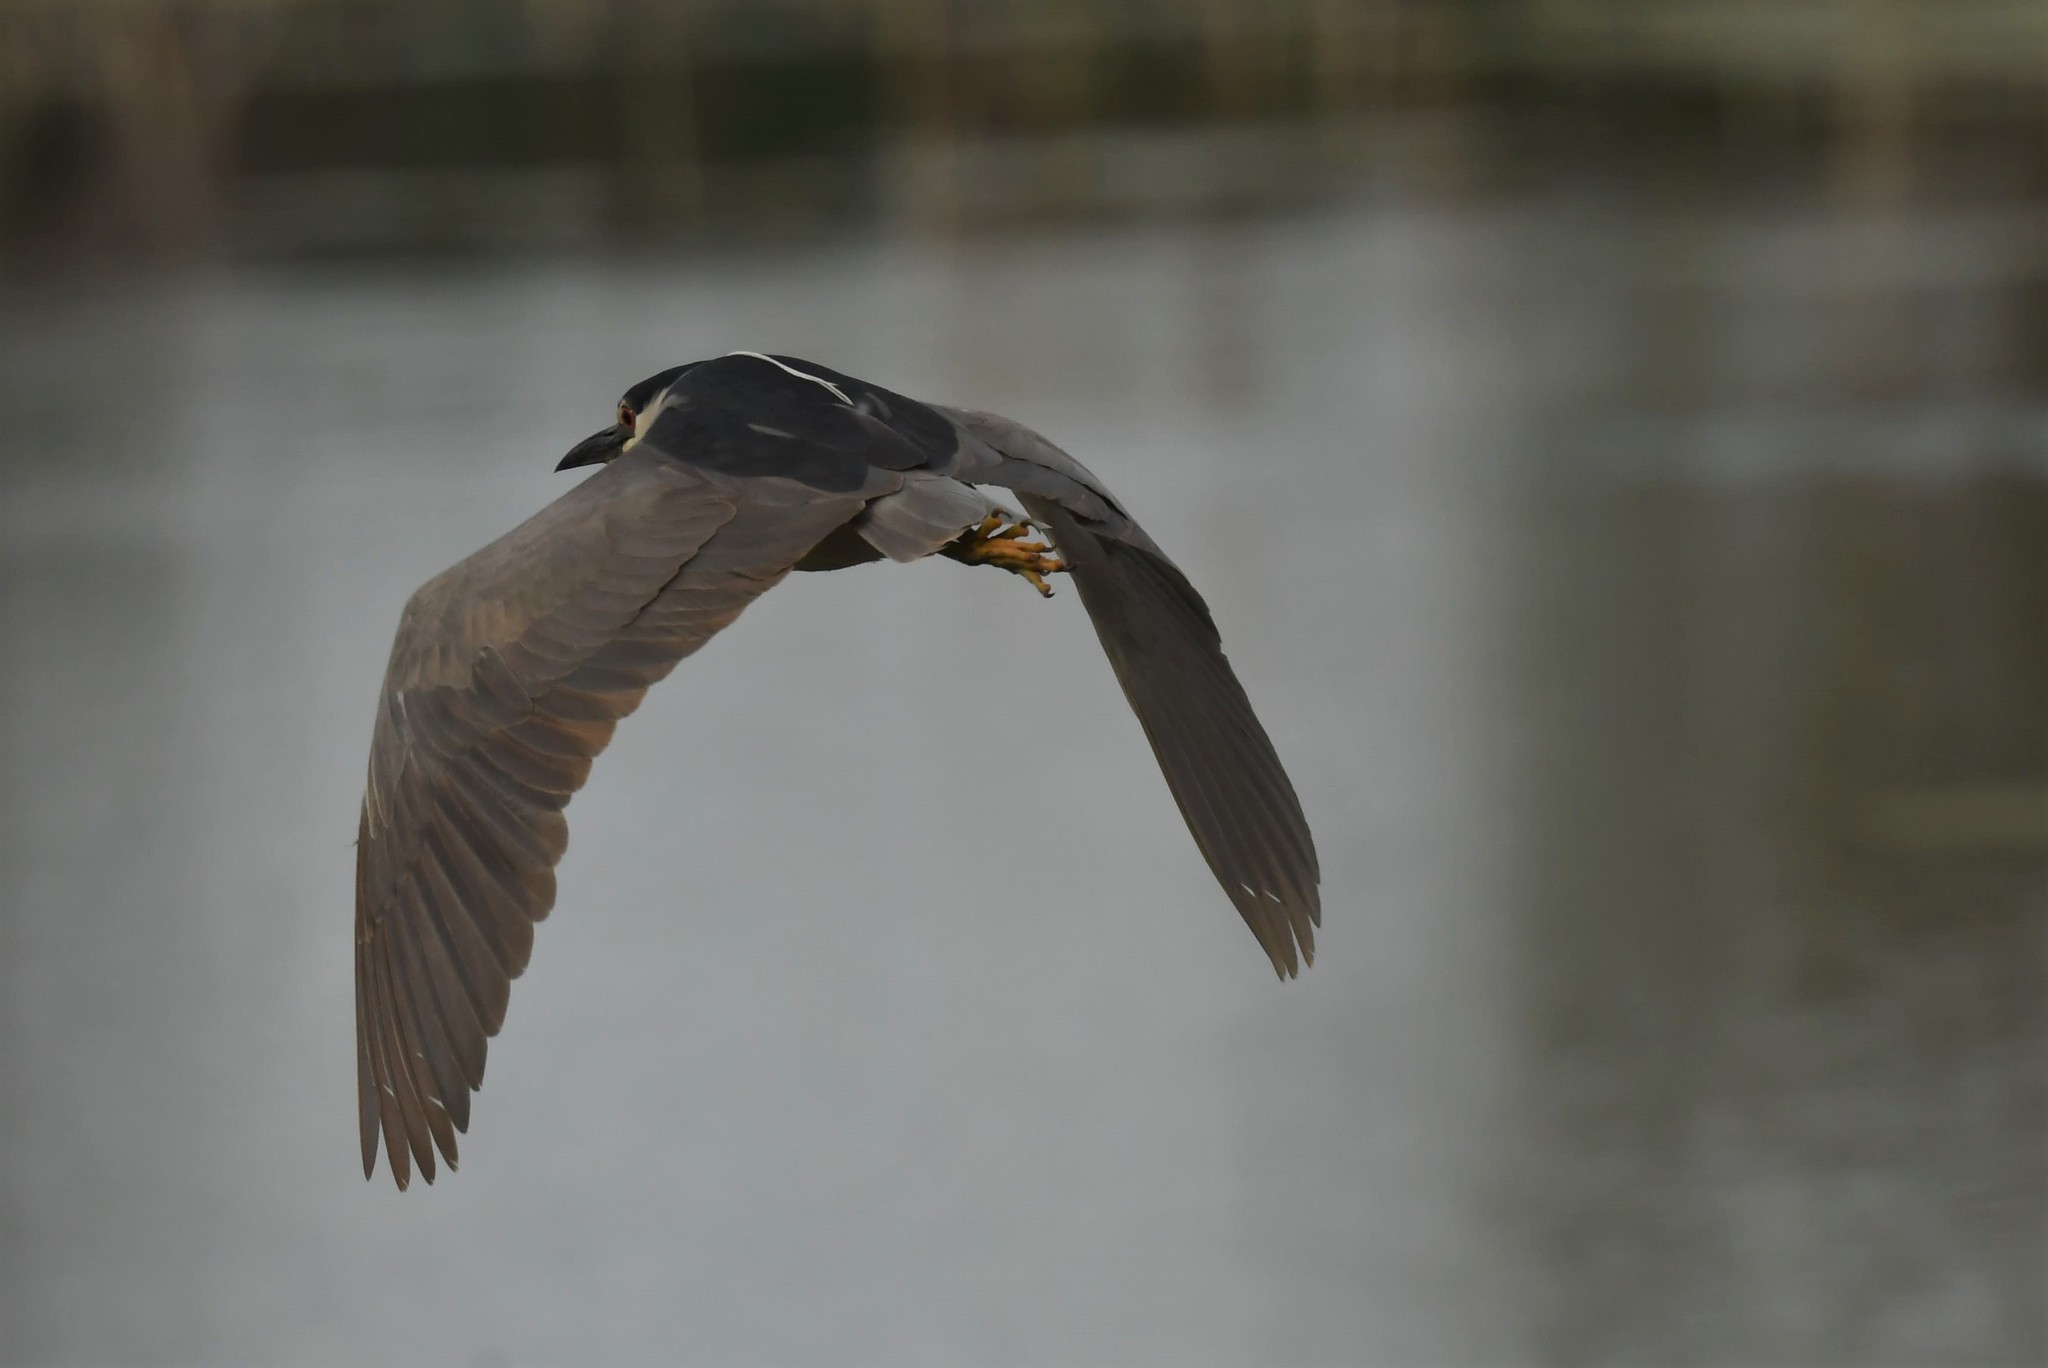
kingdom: Animalia
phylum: Chordata
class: Aves
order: Pelecaniformes
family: Ardeidae
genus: Nycticorax
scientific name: Nycticorax nycticorax
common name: Black-crowned night heron
